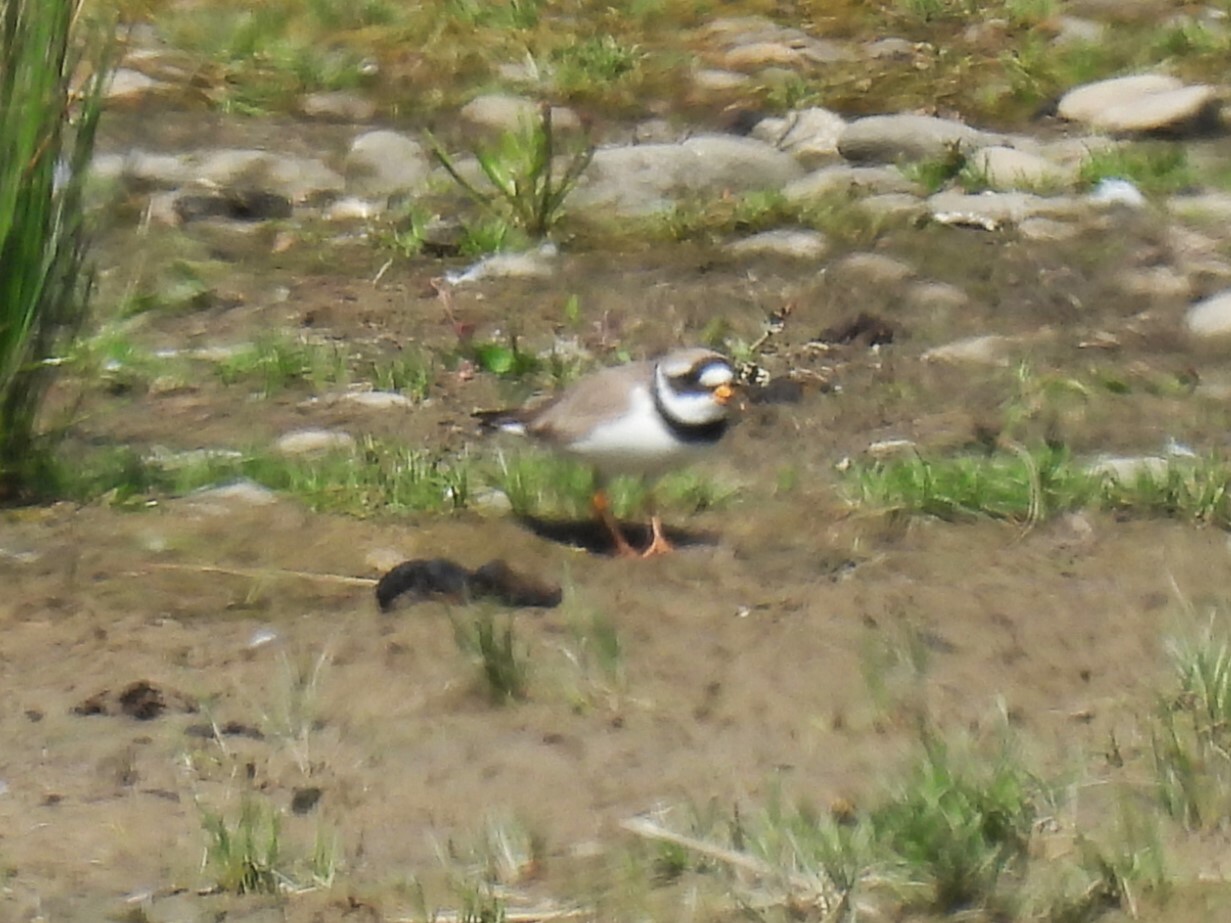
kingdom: Animalia
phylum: Chordata
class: Aves
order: Charadriiformes
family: Charadriidae
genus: Charadrius
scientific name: Charadrius hiaticula
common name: Common ringed plover
